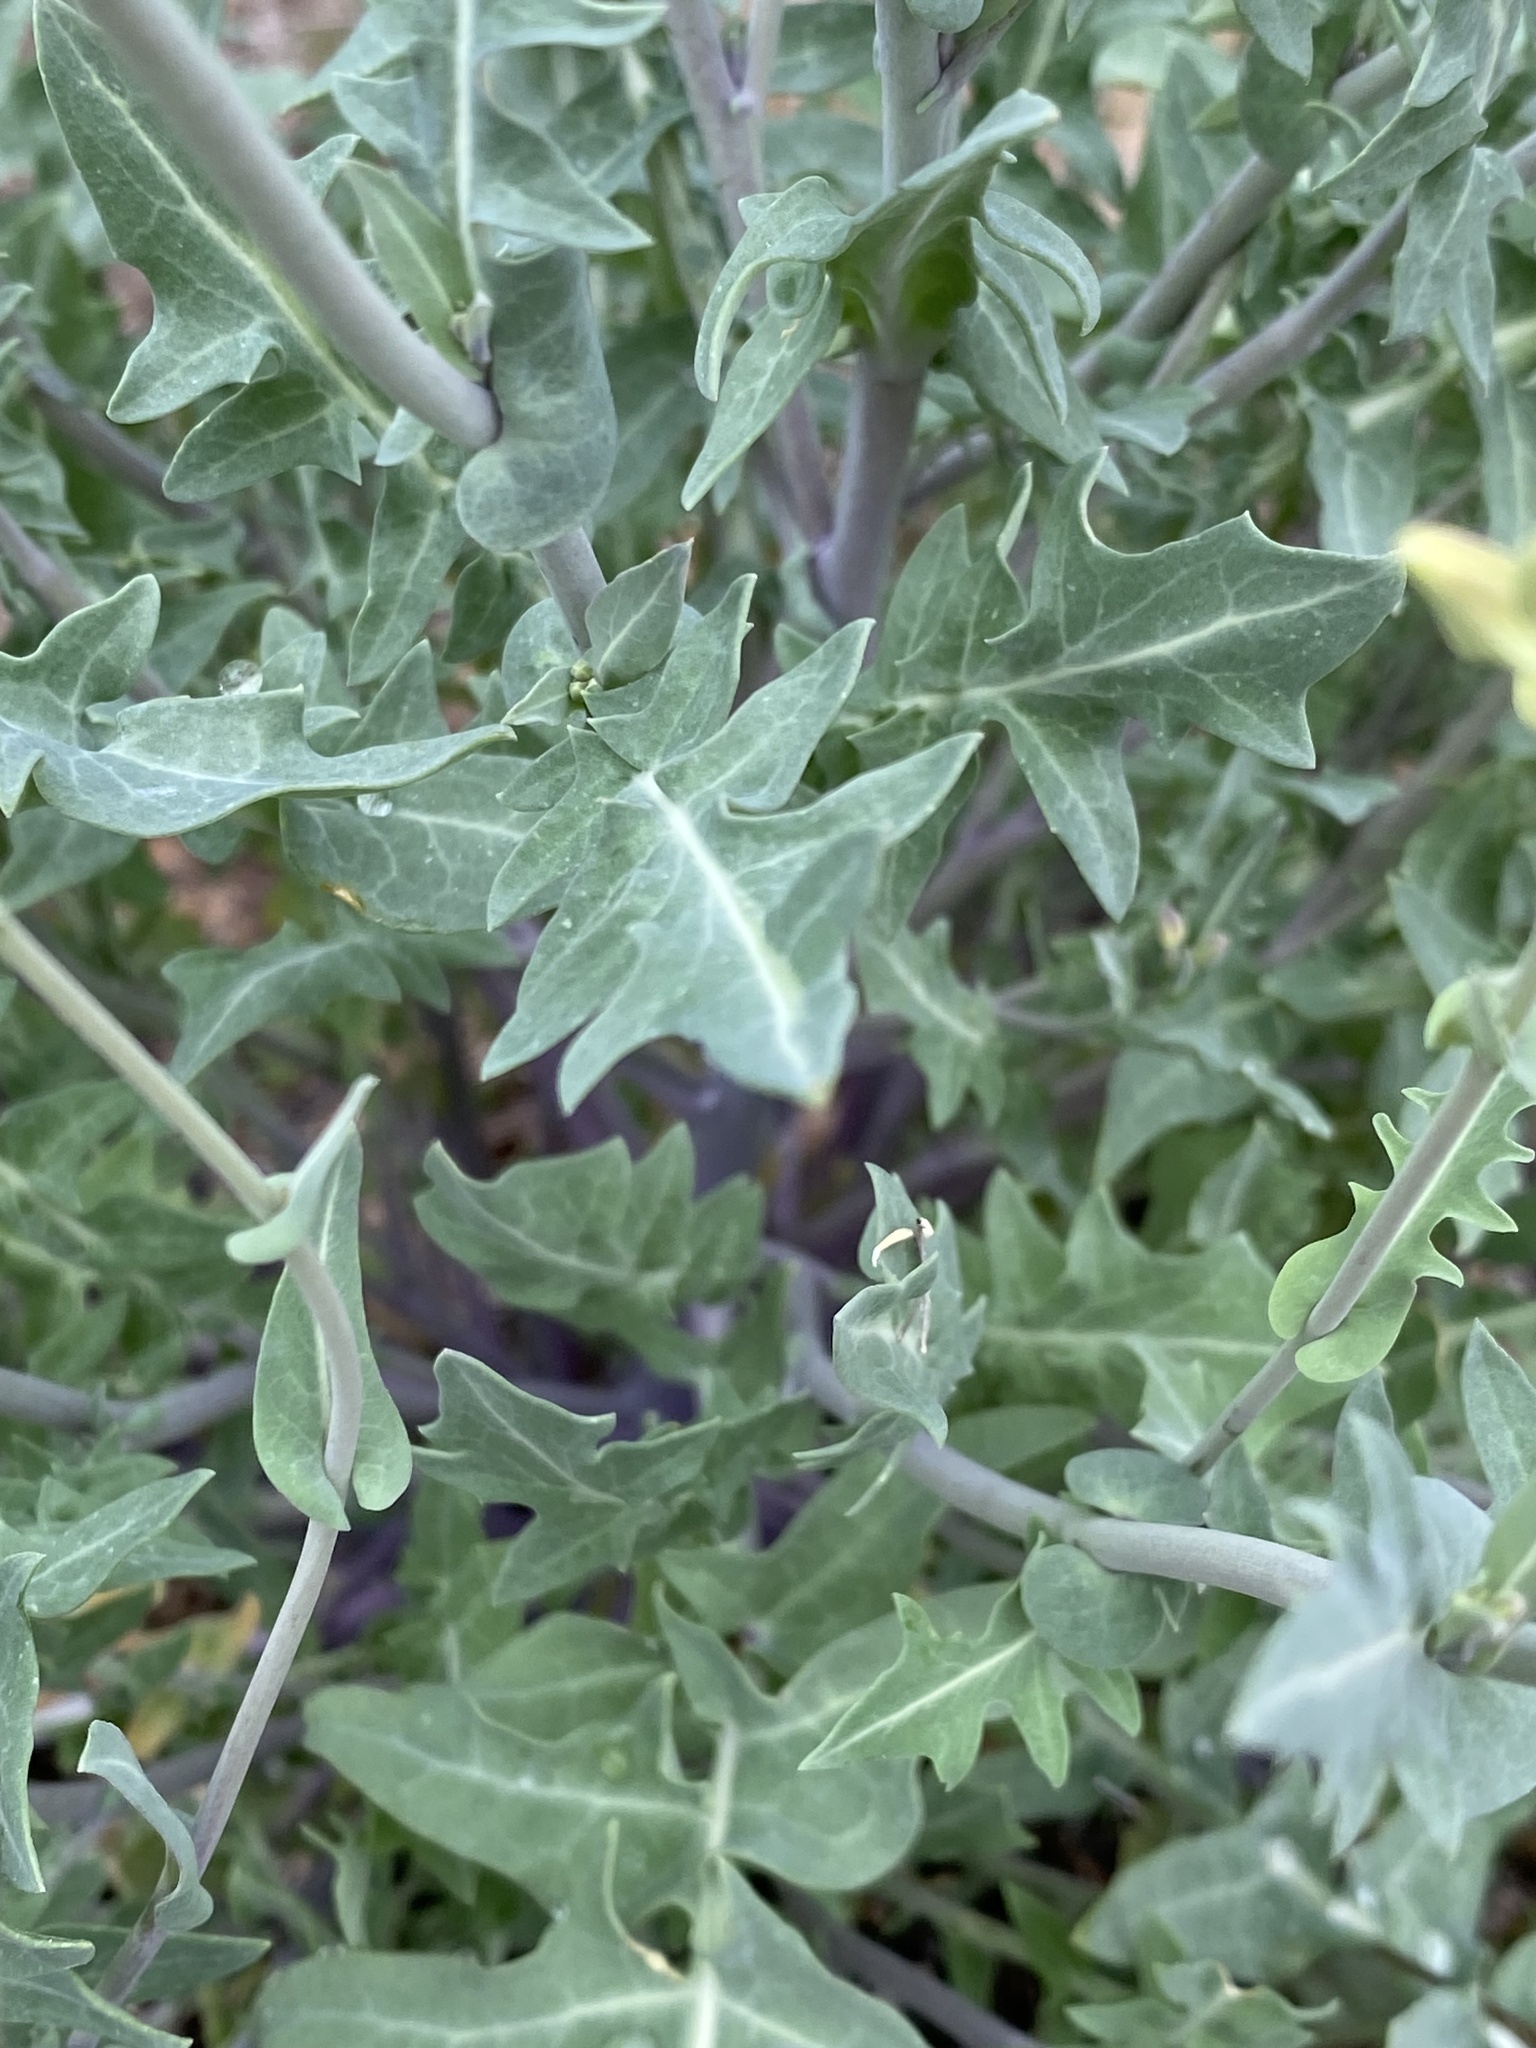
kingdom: Plantae
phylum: Tracheophyta
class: Magnoliopsida
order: Brassicales
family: Brassicaceae
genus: Streptanthus
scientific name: Streptanthus carinatus
